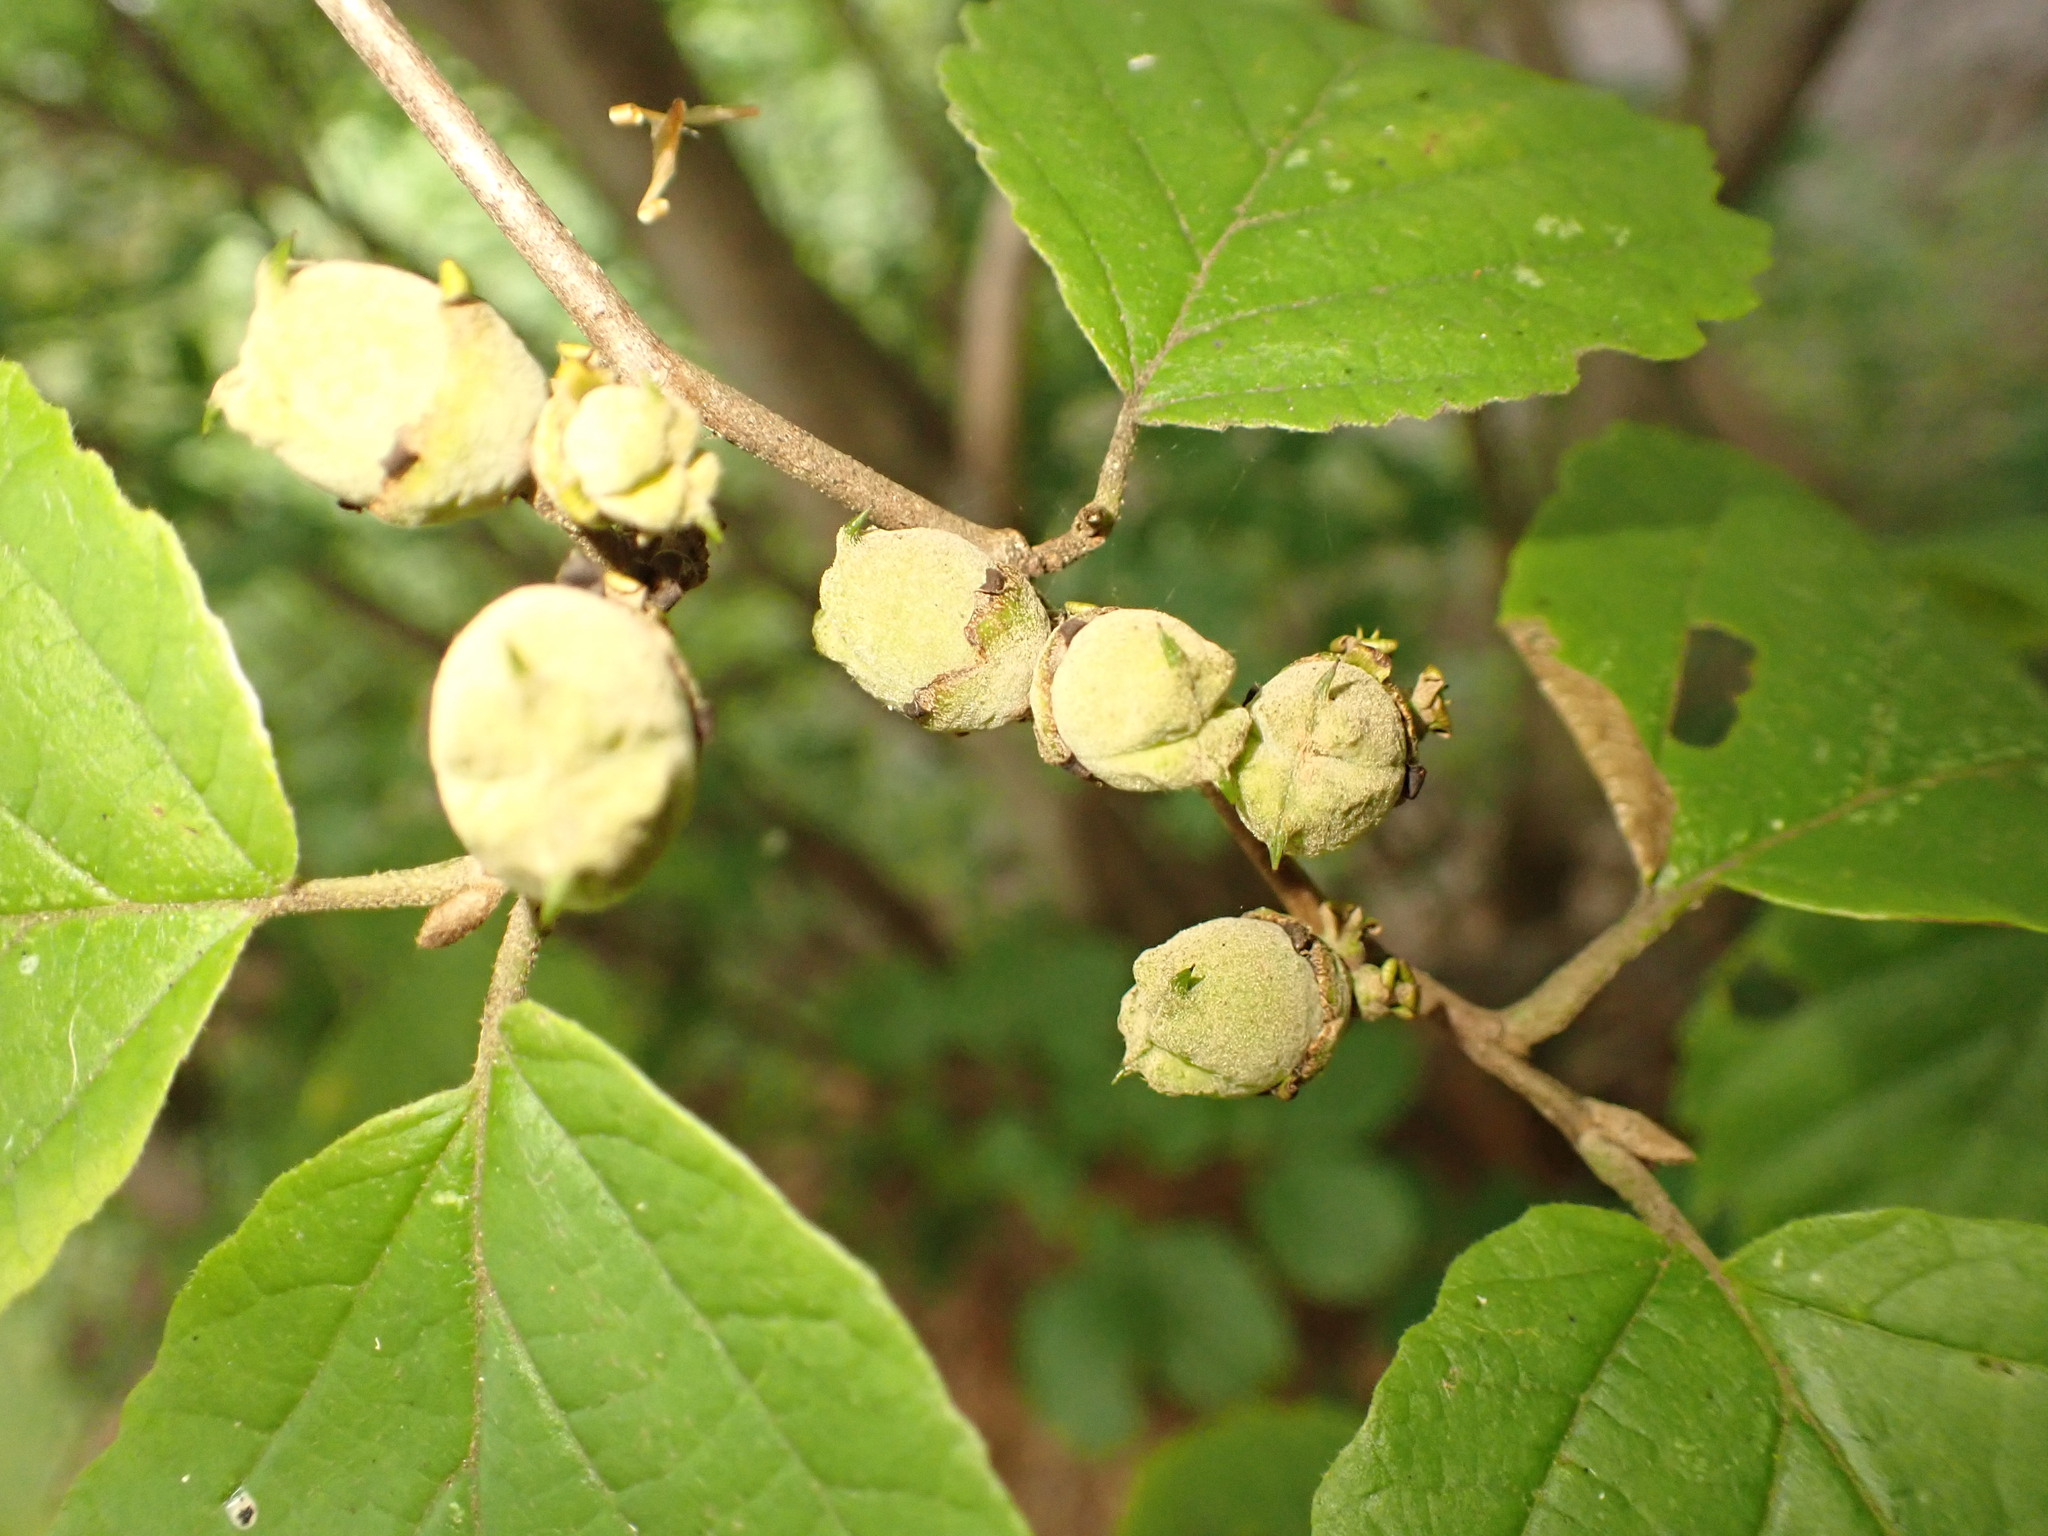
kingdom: Plantae
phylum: Tracheophyta
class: Magnoliopsida
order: Saxifragales
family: Hamamelidaceae
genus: Hamamelis
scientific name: Hamamelis virginiana
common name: Witch-hazel
